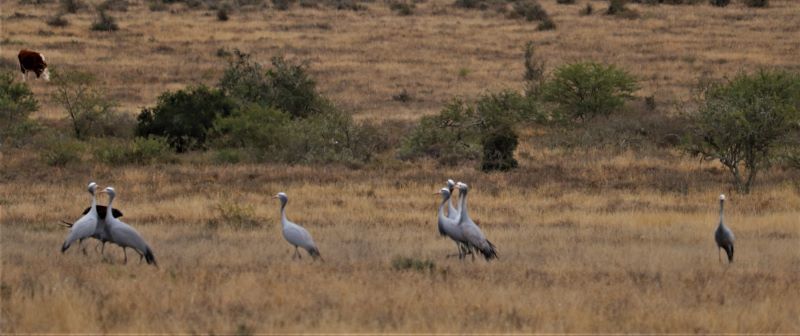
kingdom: Animalia
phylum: Chordata
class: Aves
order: Gruiformes
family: Gruidae
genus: Anthropoides
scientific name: Anthropoides paradiseus
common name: Blue crane
